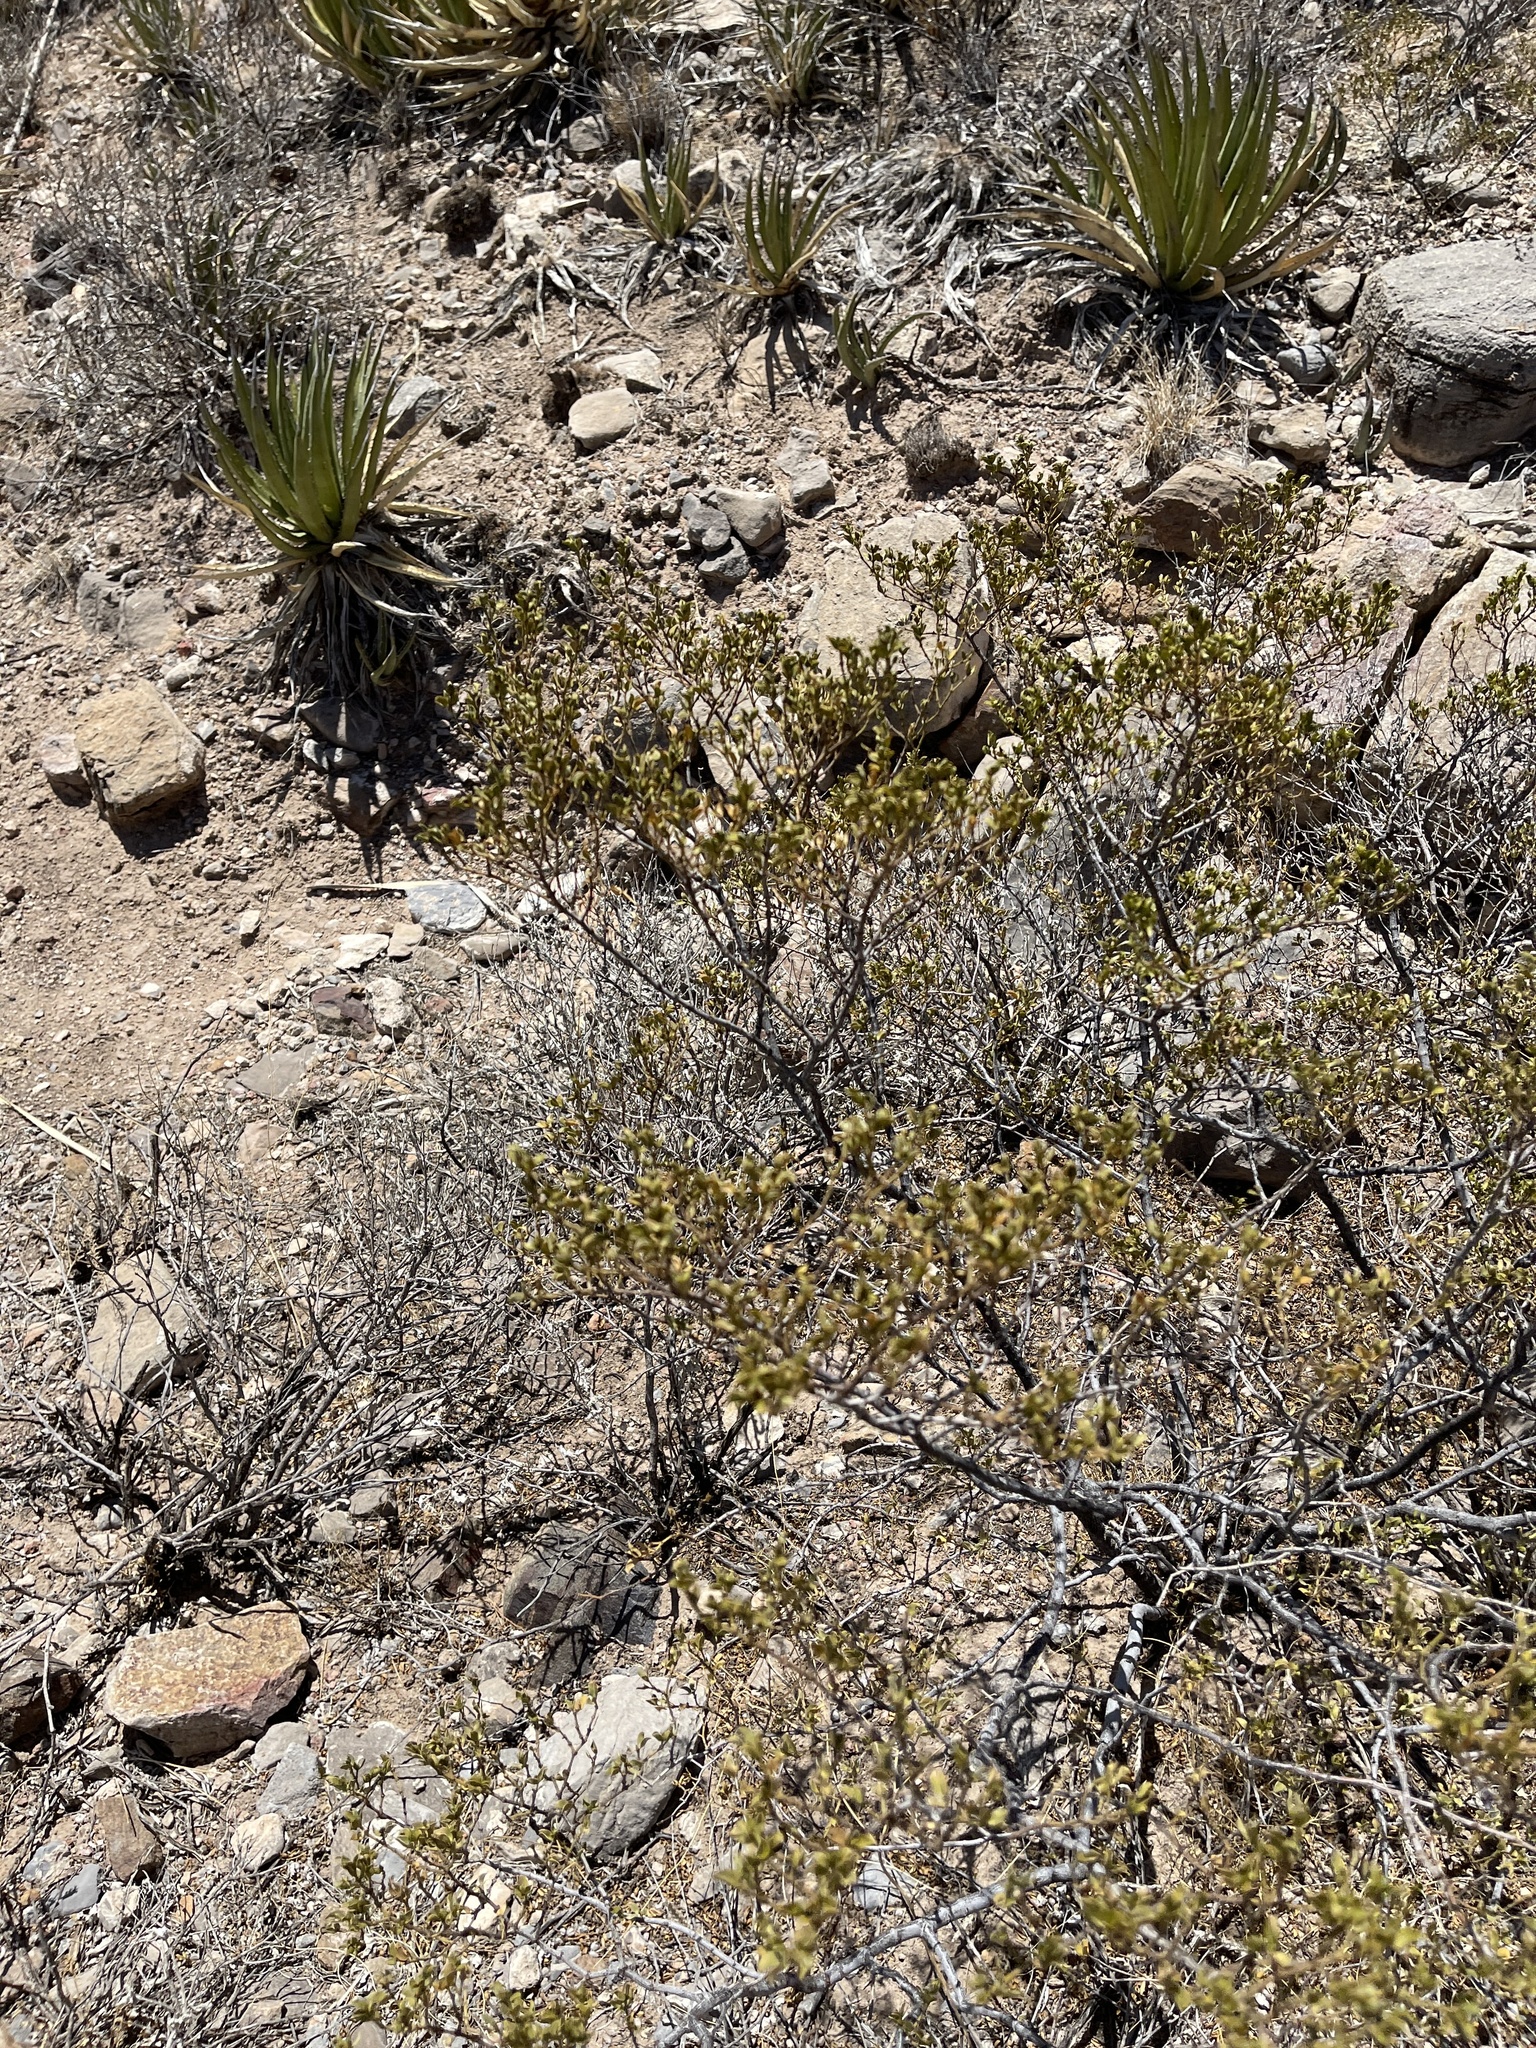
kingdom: Plantae
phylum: Tracheophyta
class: Magnoliopsida
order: Zygophyllales
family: Zygophyllaceae
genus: Larrea
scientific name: Larrea tridentata
